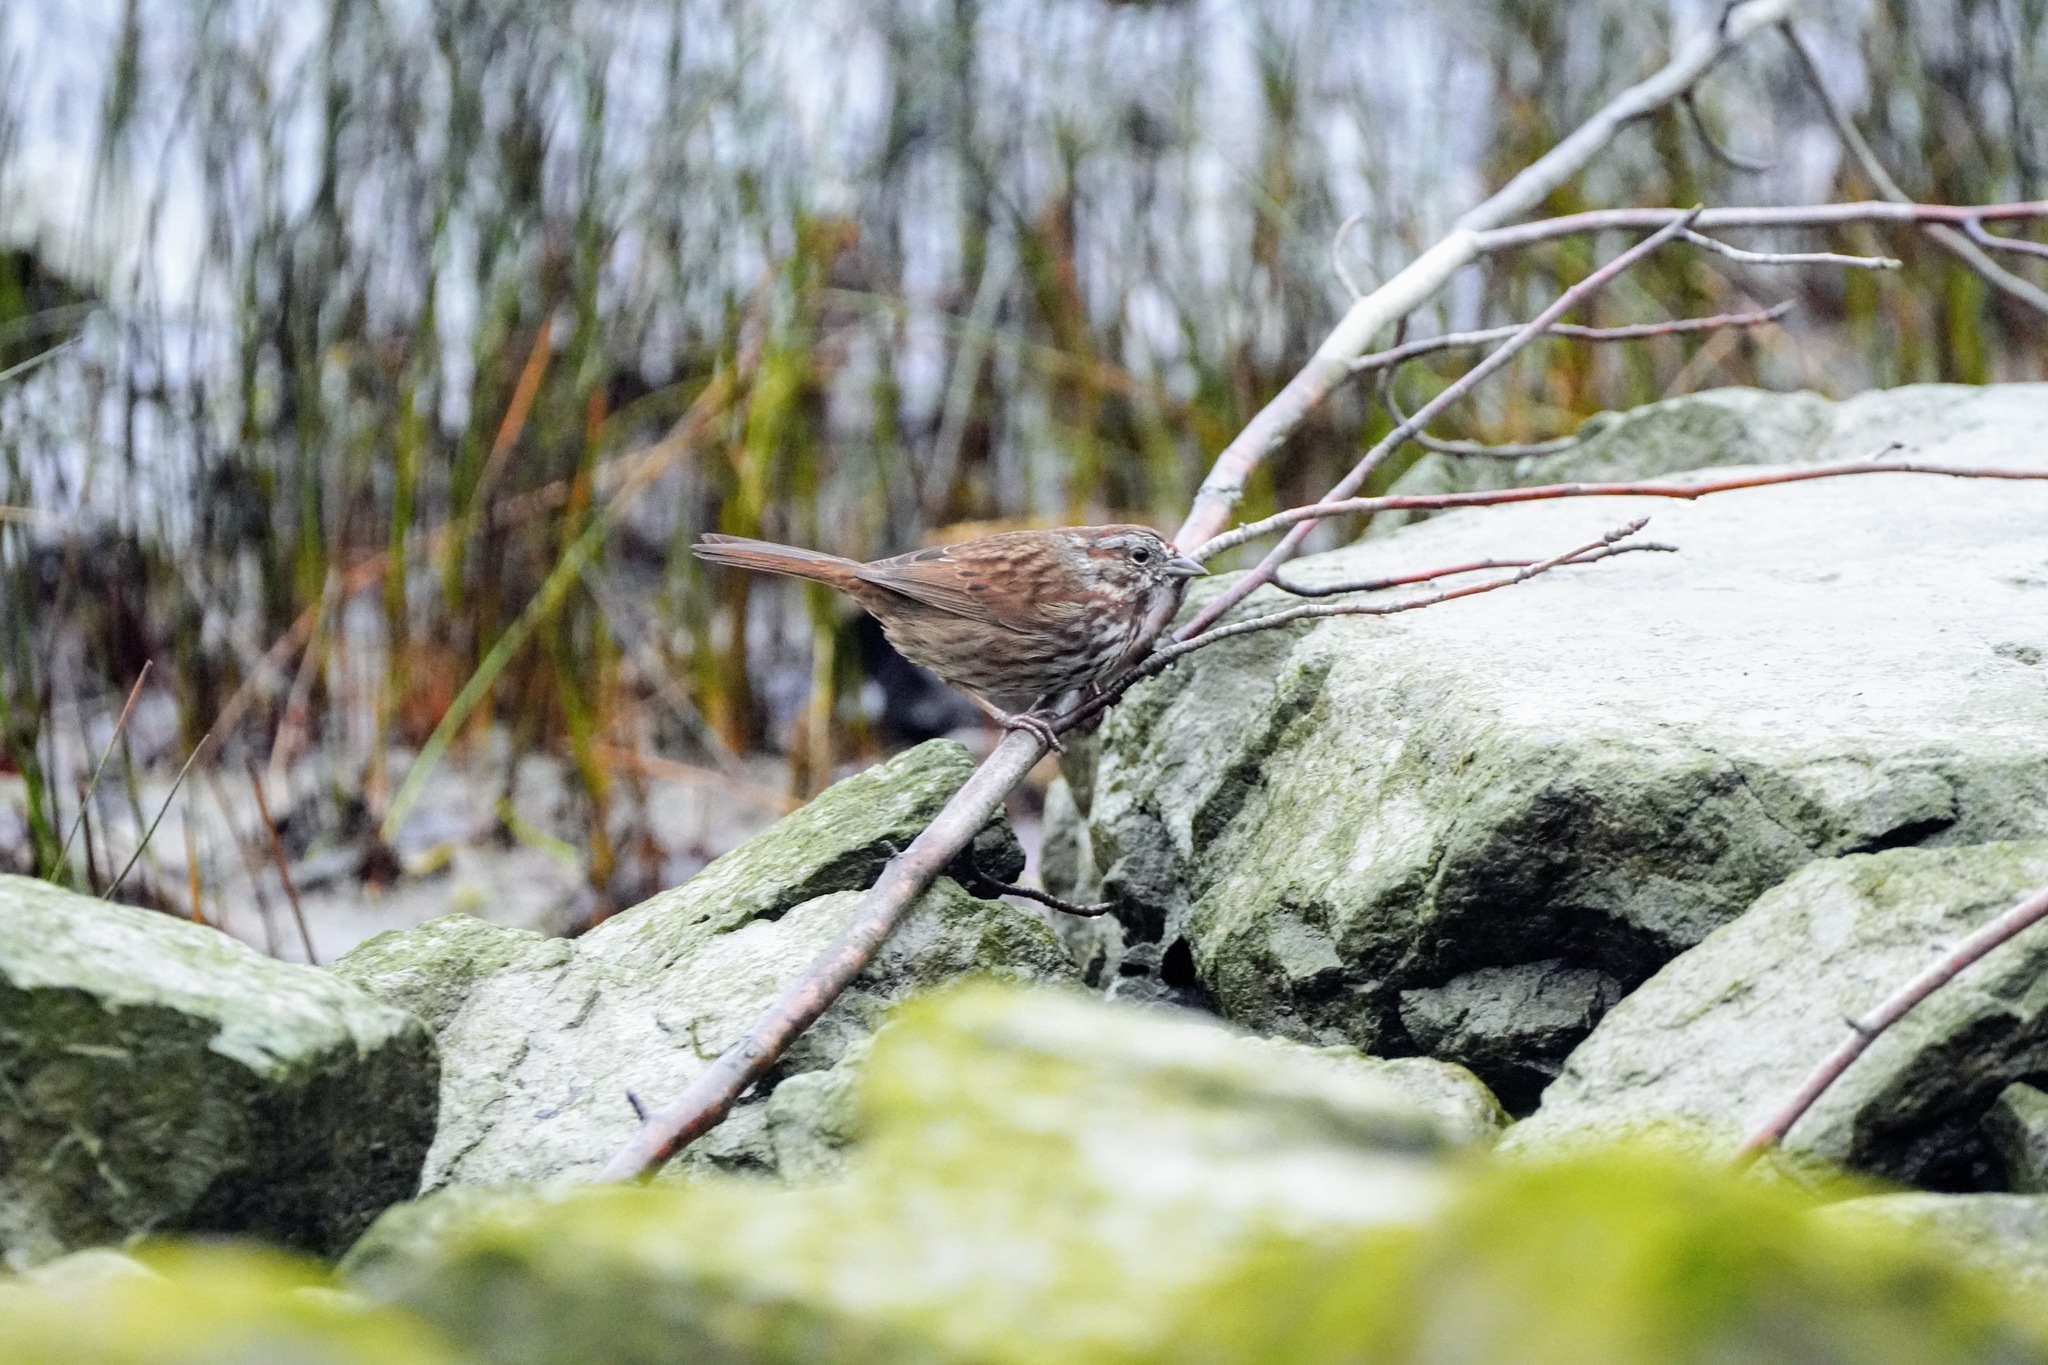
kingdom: Animalia
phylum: Chordata
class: Aves
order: Passeriformes
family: Passerellidae
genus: Melospiza
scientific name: Melospiza melodia
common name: Song sparrow
